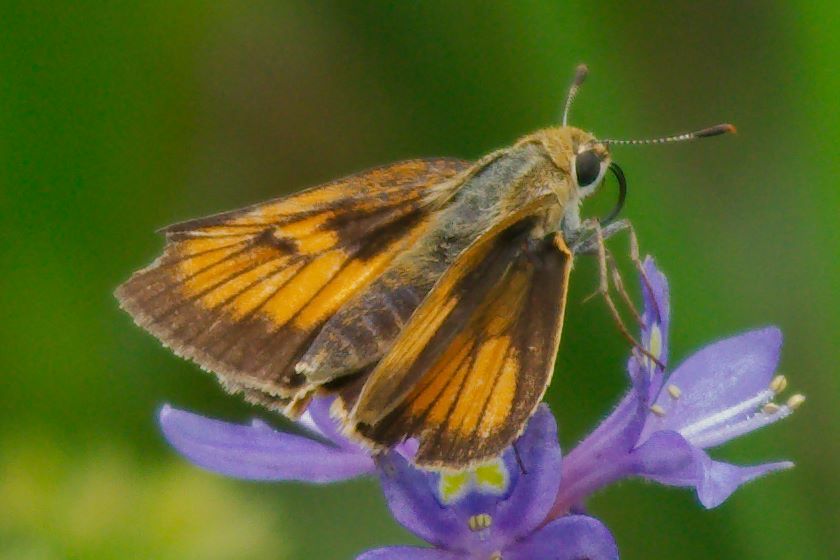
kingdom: Animalia
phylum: Arthropoda
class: Insecta
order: Lepidoptera
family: Hesperiidae
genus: Atrytone
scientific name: Atrytone delaware
